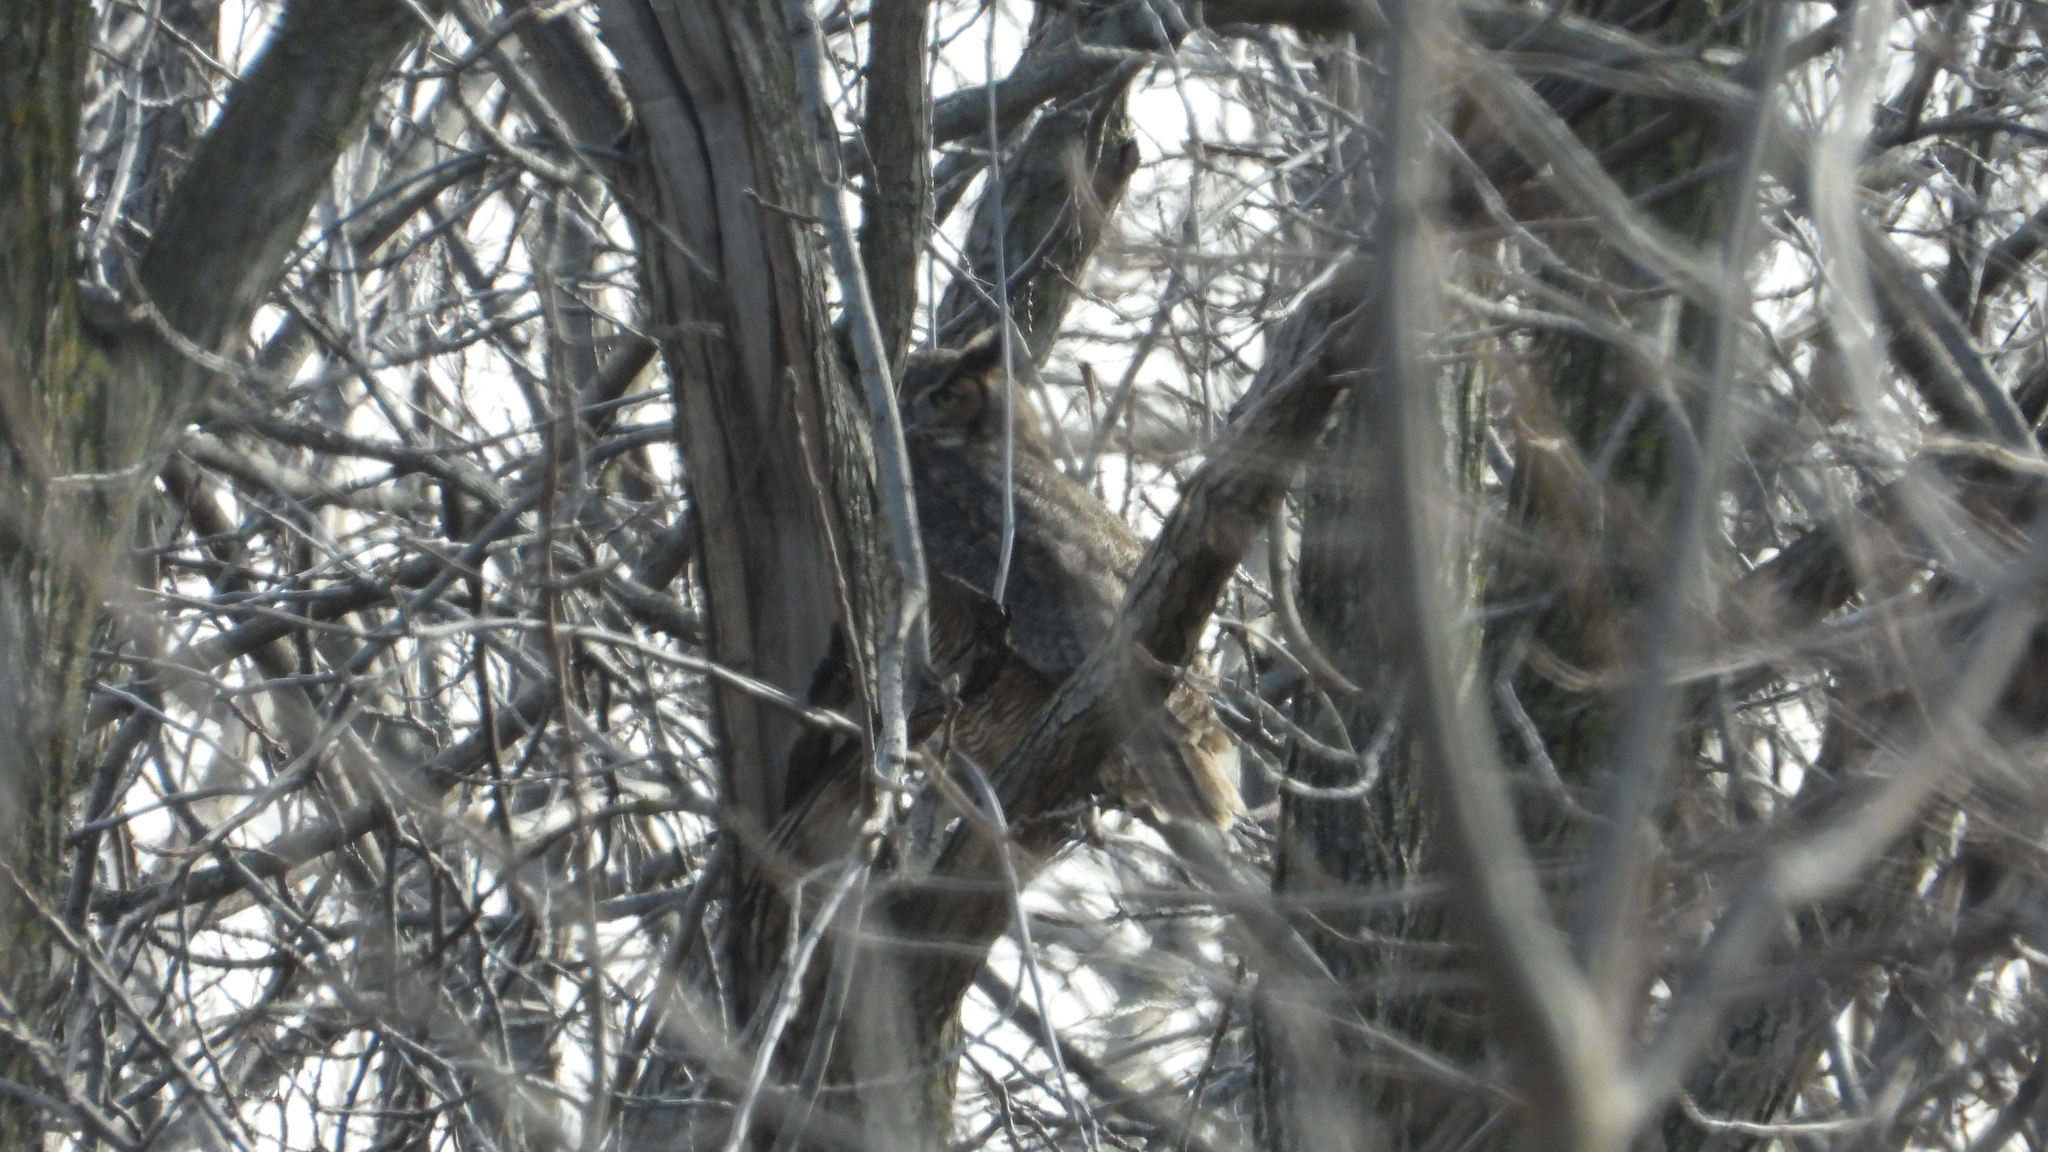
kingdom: Animalia
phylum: Chordata
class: Aves
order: Strigiformes
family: Strigidae
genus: Bubo
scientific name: Bubo virginianus
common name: Great horned owl
